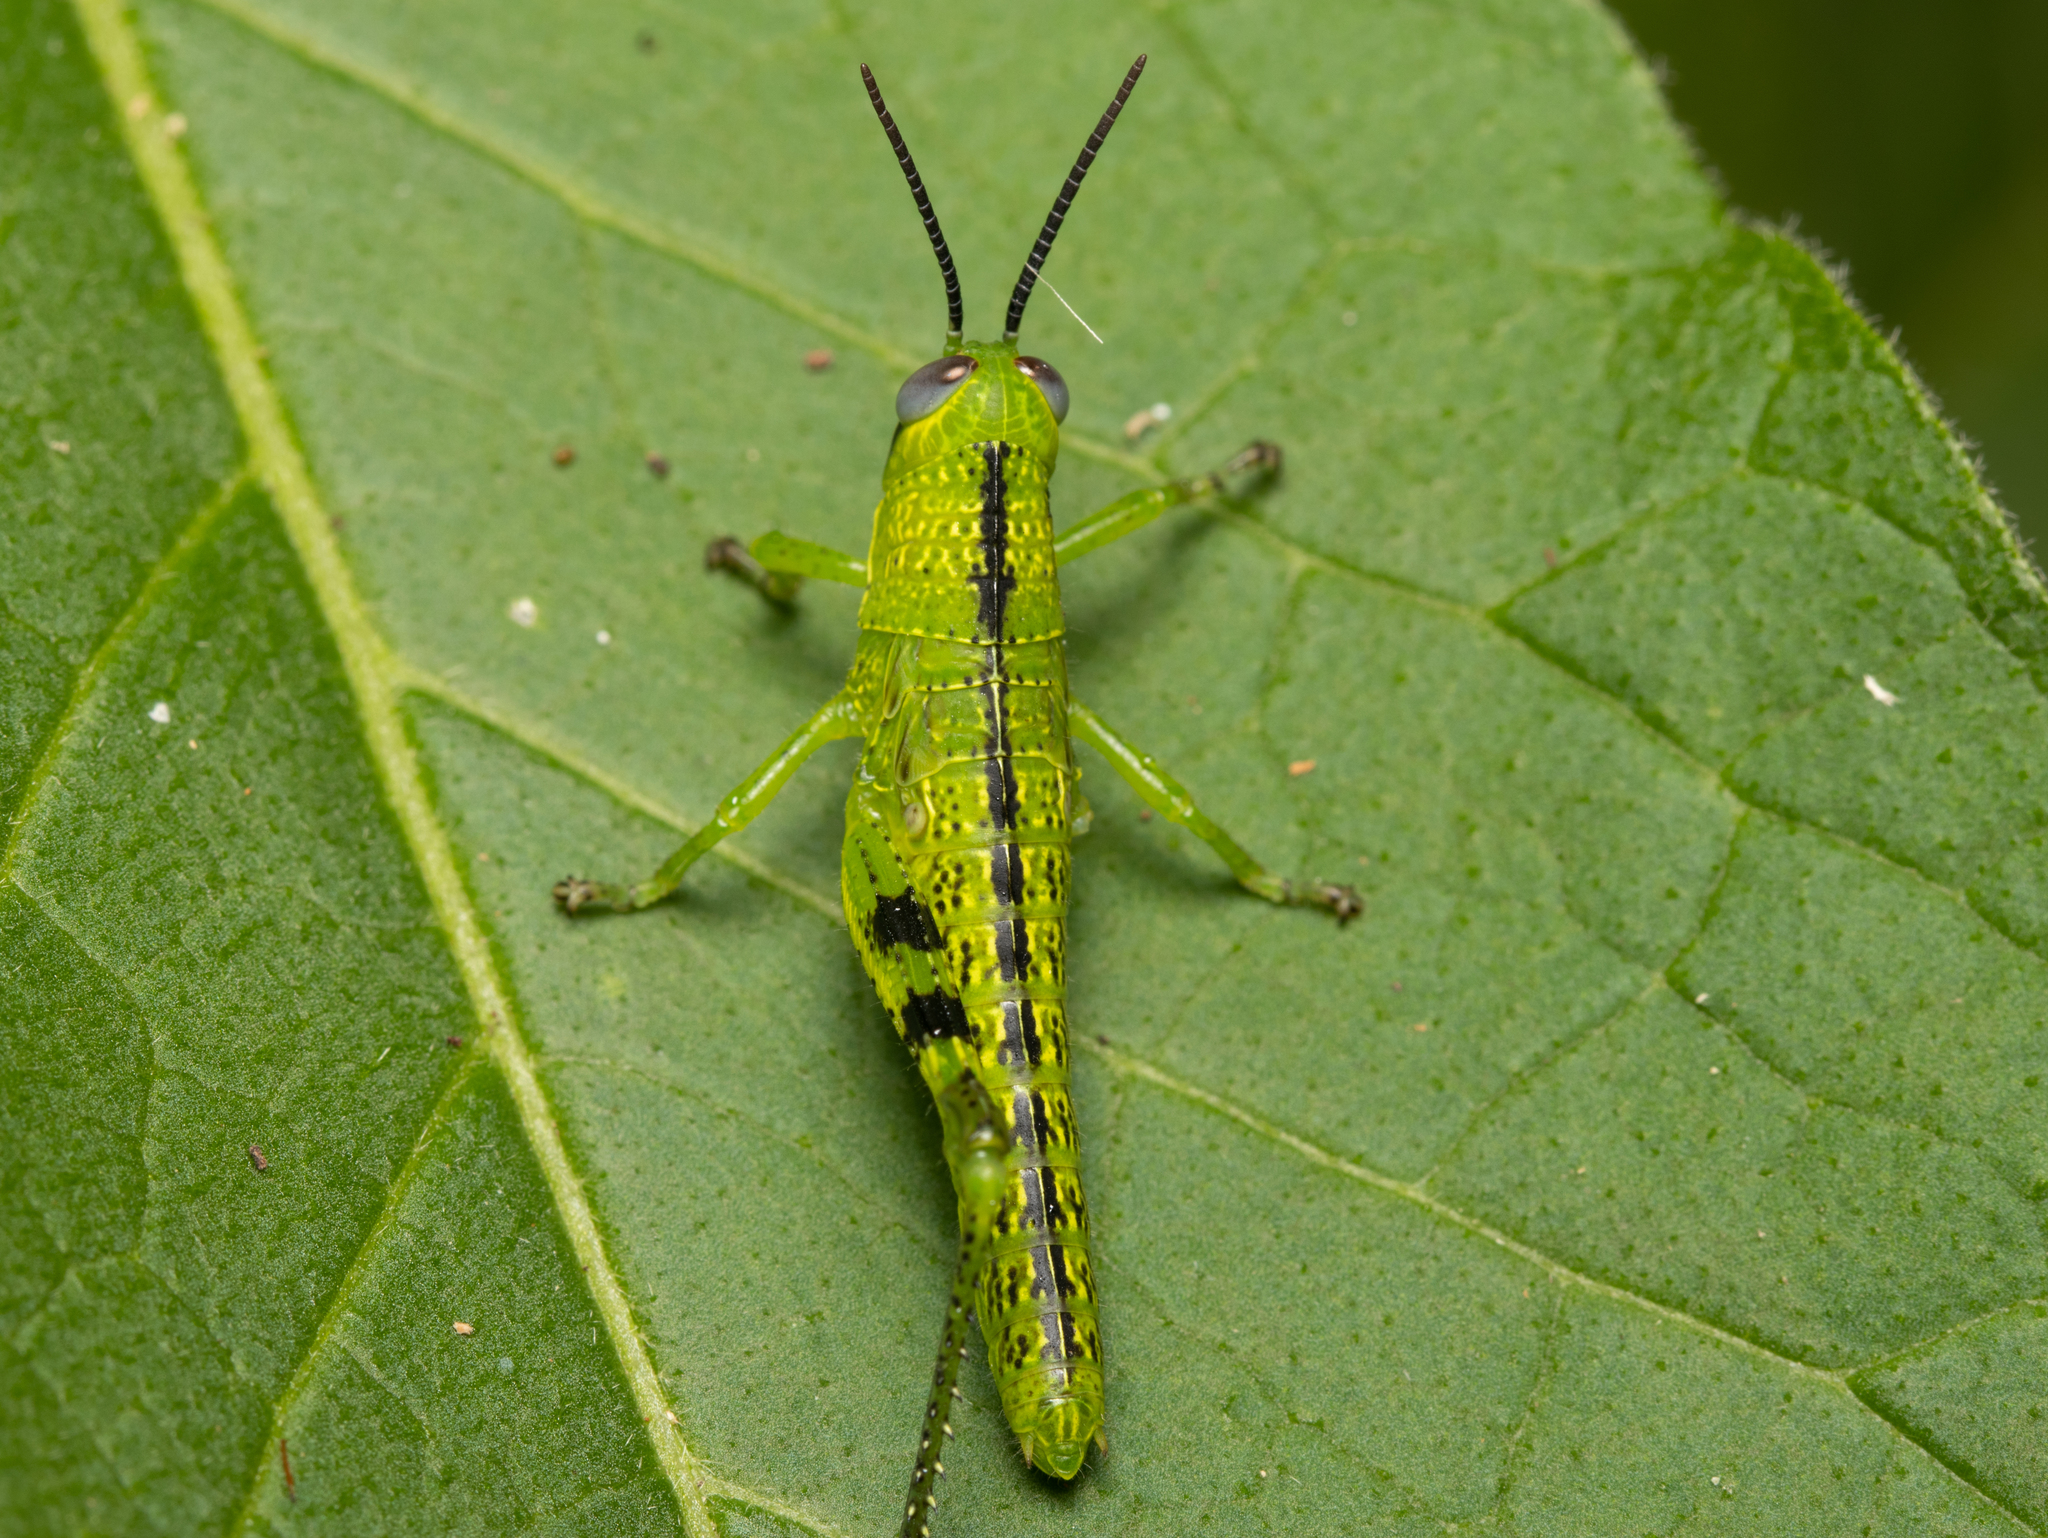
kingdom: Animalia
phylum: Arthropoda
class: Insecta
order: Orthoptera
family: Acrididae
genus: Valanga
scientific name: Valanga irregularis
